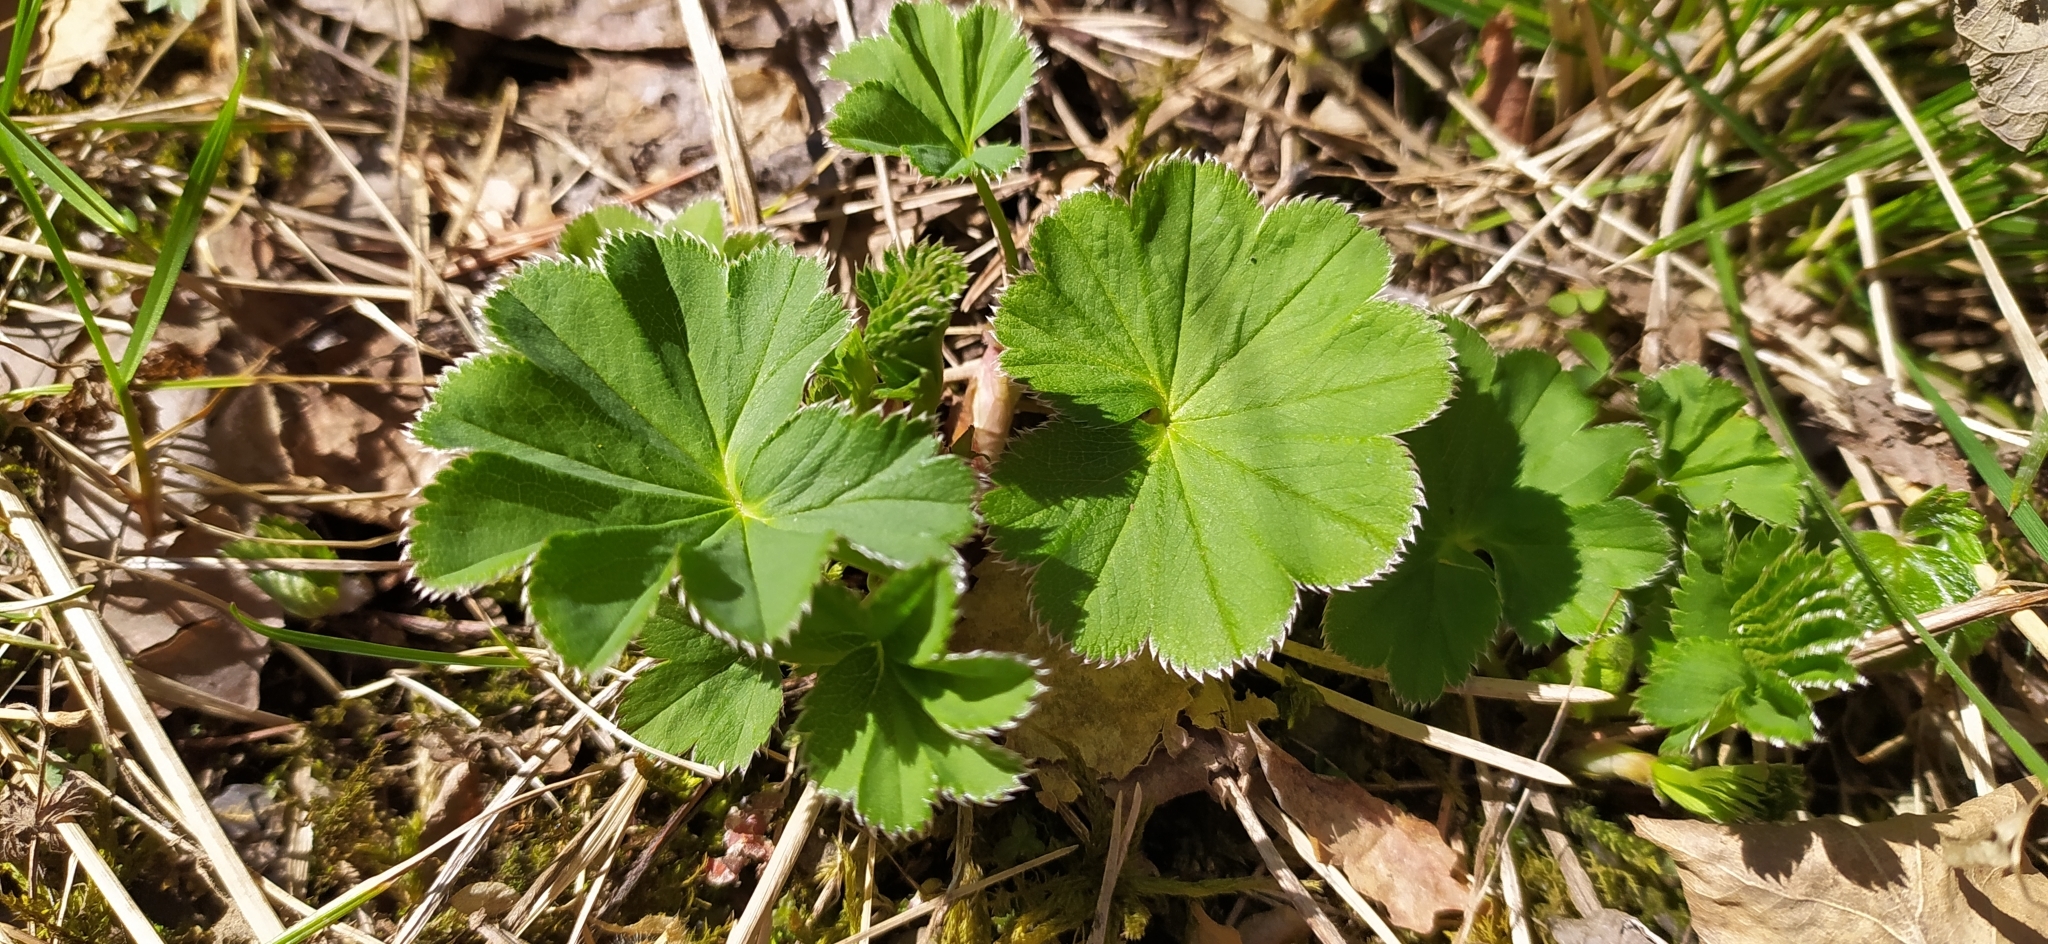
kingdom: Plantae
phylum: Tracheophyta
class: Magnoliopsida
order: Rosales
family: Rosaceae
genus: Alchemilla
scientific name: Alchemilla
